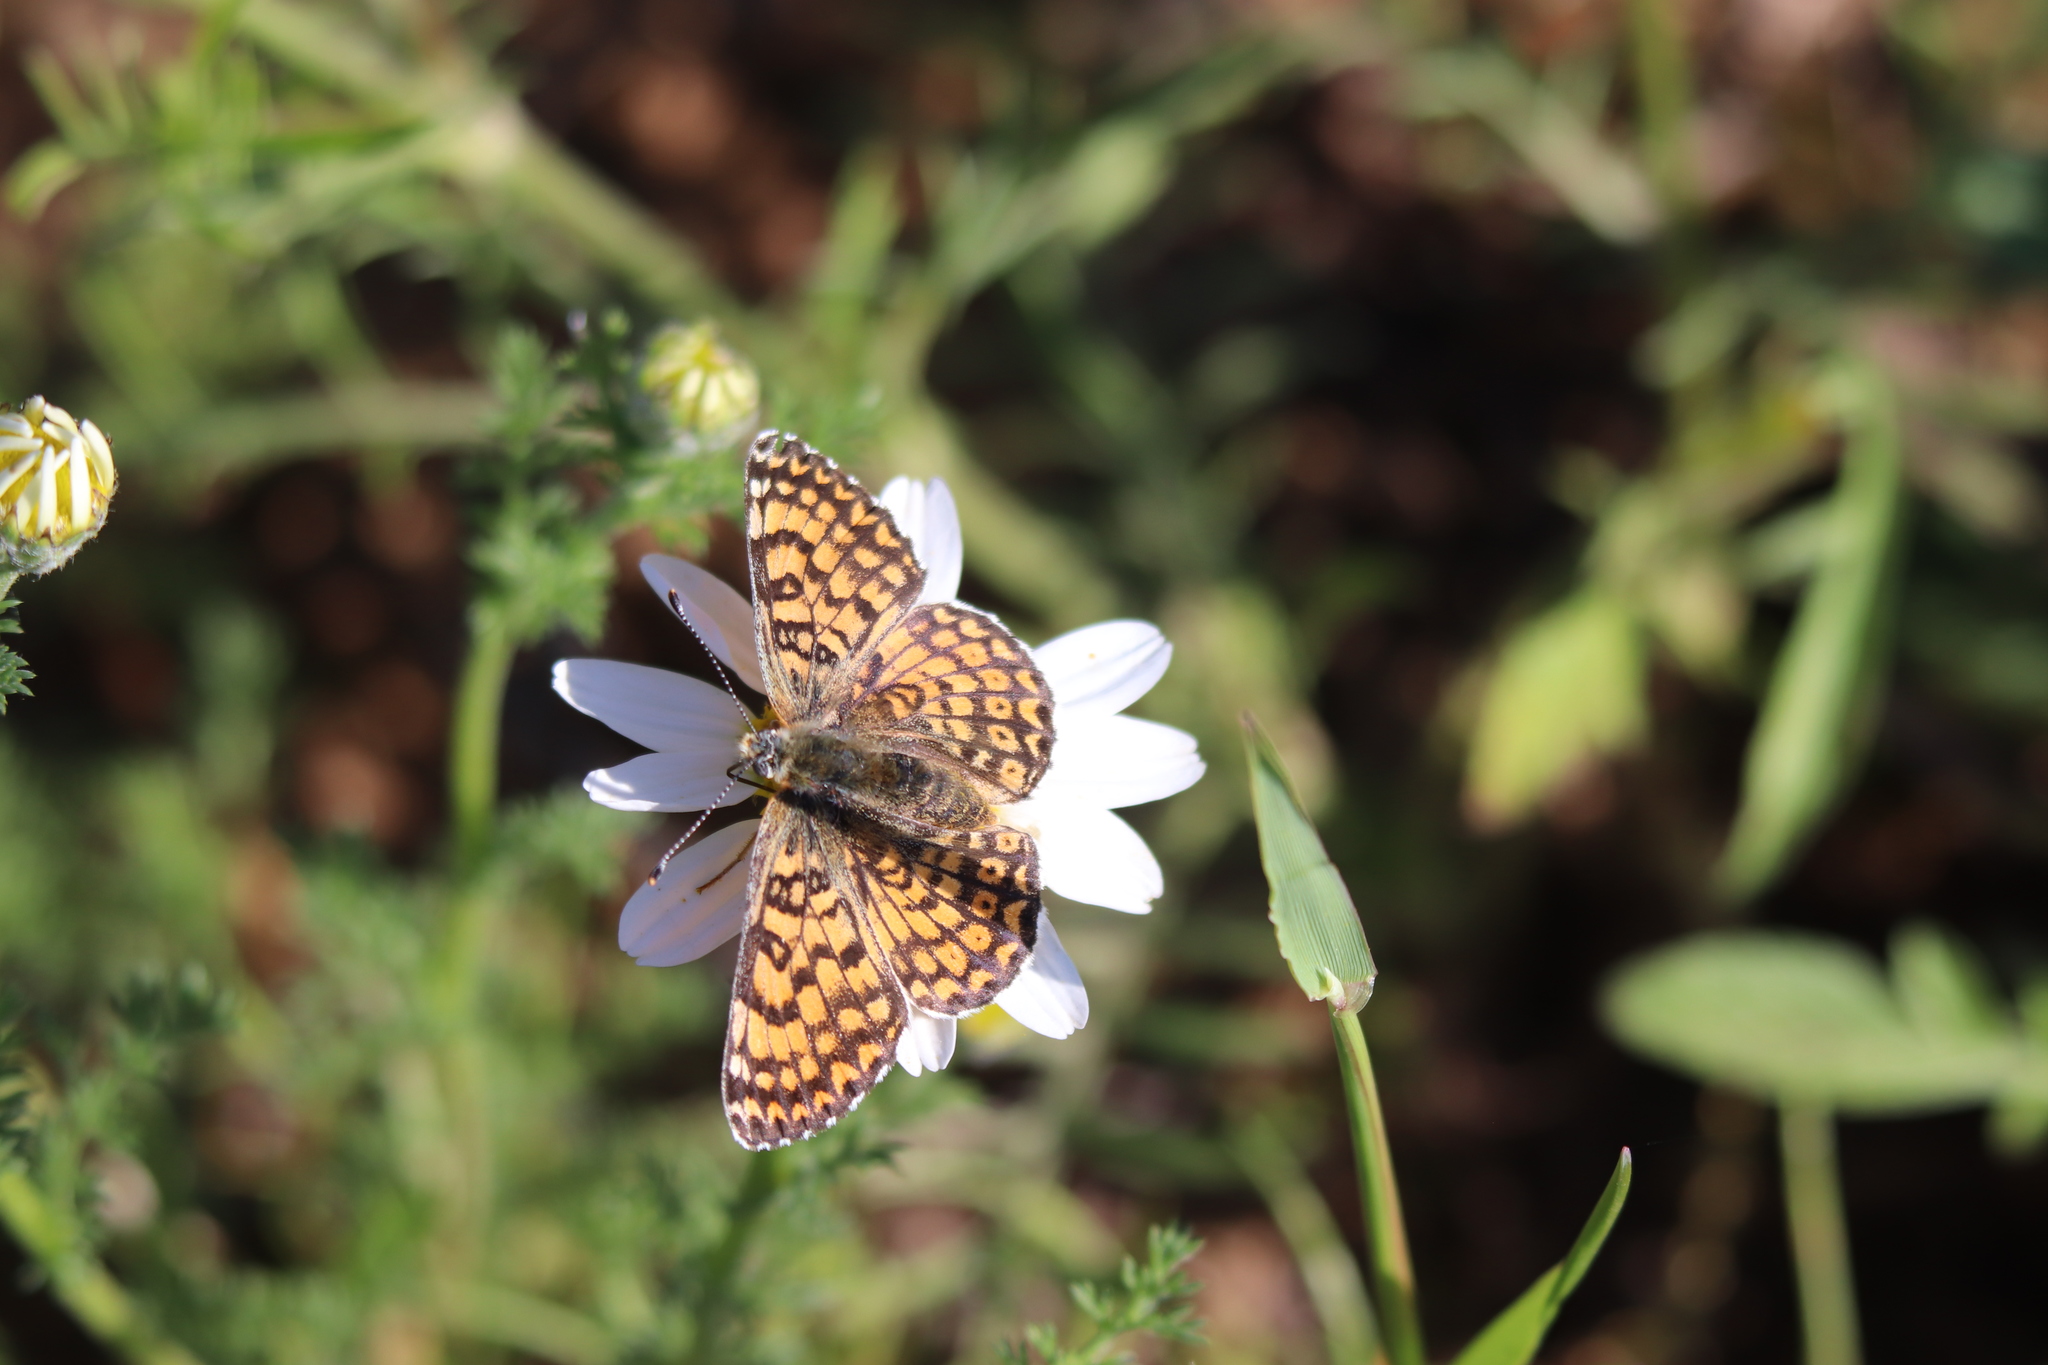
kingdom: Animalia
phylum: Arthropoda
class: Insecta
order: Lepidoptera
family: Nymphalidae
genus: Melitaea
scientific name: Melitaea cinxia
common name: Glanville fritillary
